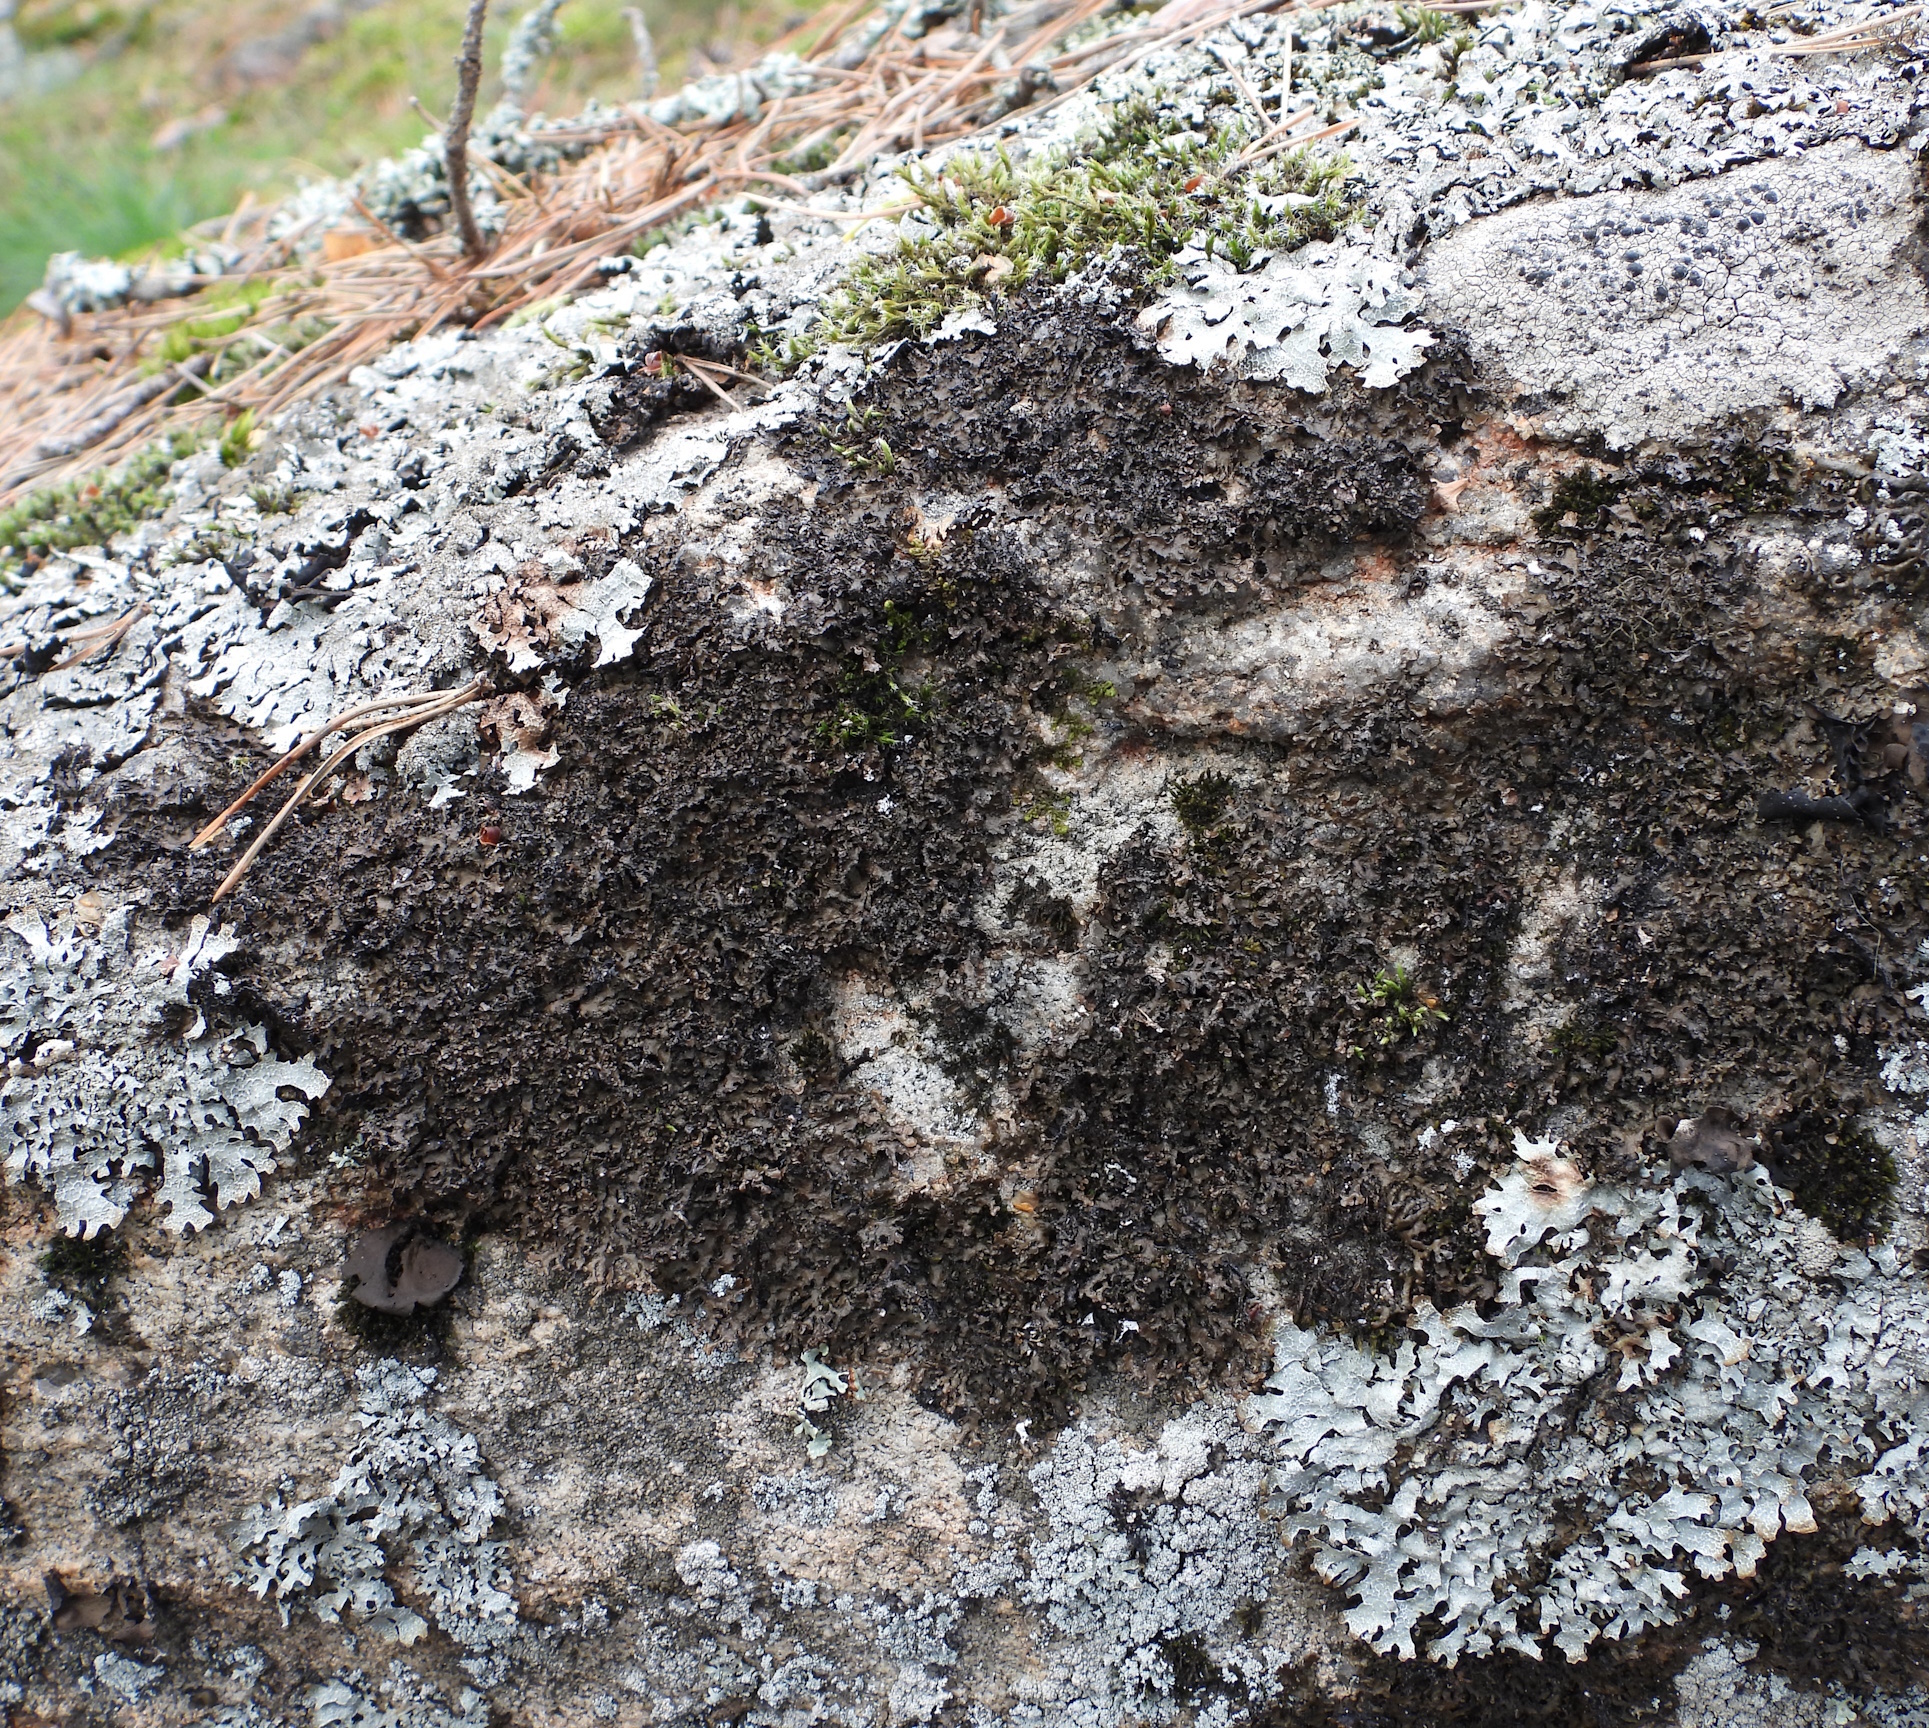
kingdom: Fungi
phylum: Ascomycota
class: Lecanoromycetes
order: Lecanorales
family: Parmeliaceae
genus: Melanelia
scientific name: Melanelia hepatizon
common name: Rimmed camouflage lichen
